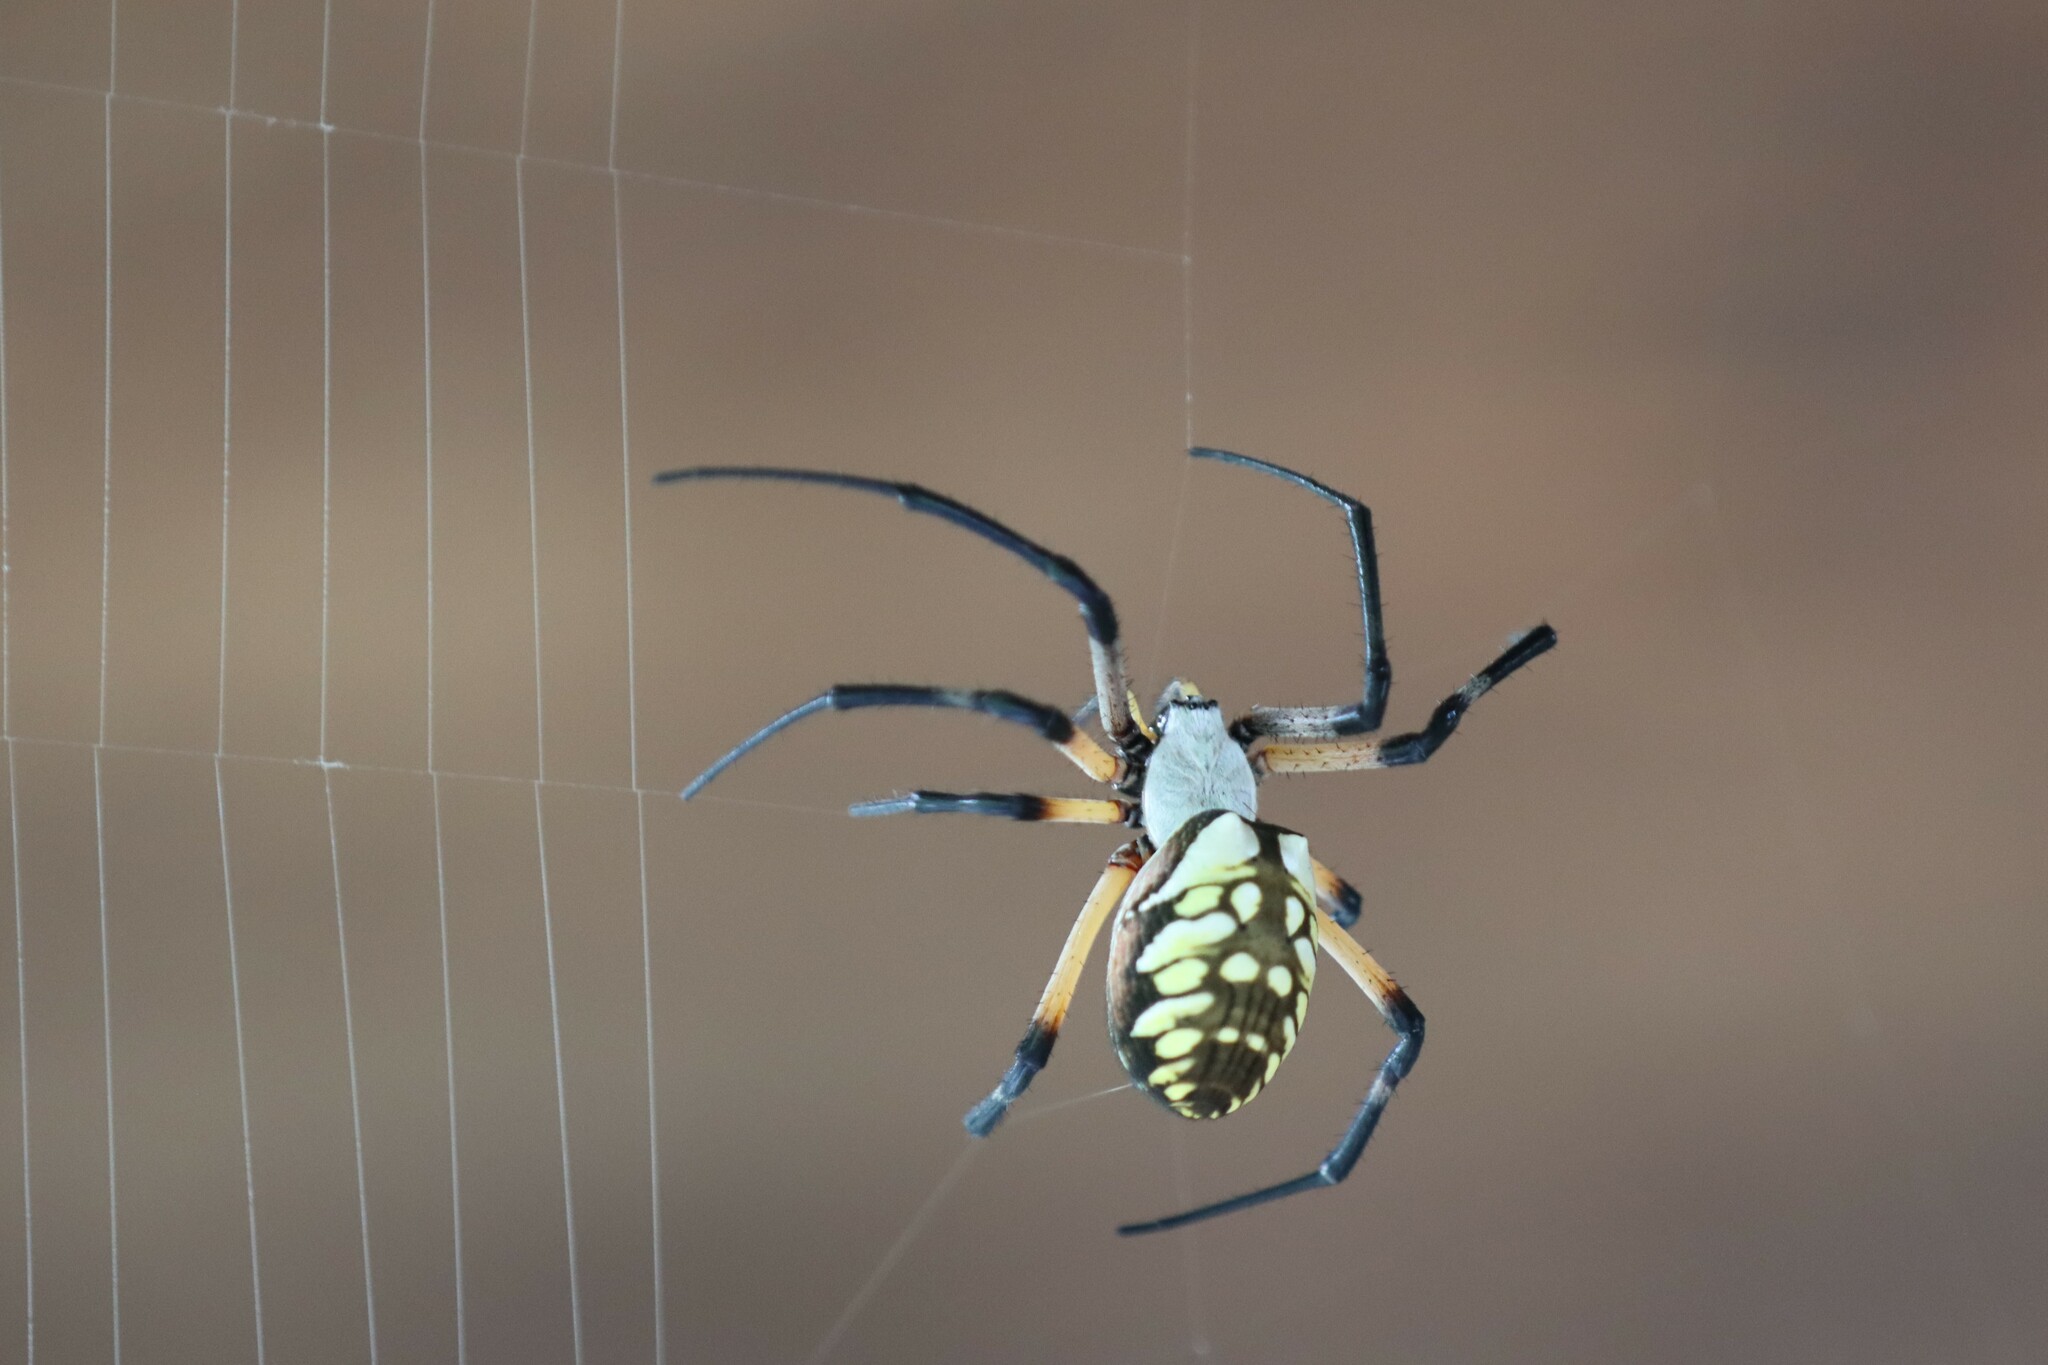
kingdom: Animalia
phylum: Arthropoda
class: Arachnida
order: Araneae
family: Araneidae
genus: Argiope
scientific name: Argiope aurantia
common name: Orb weavers
